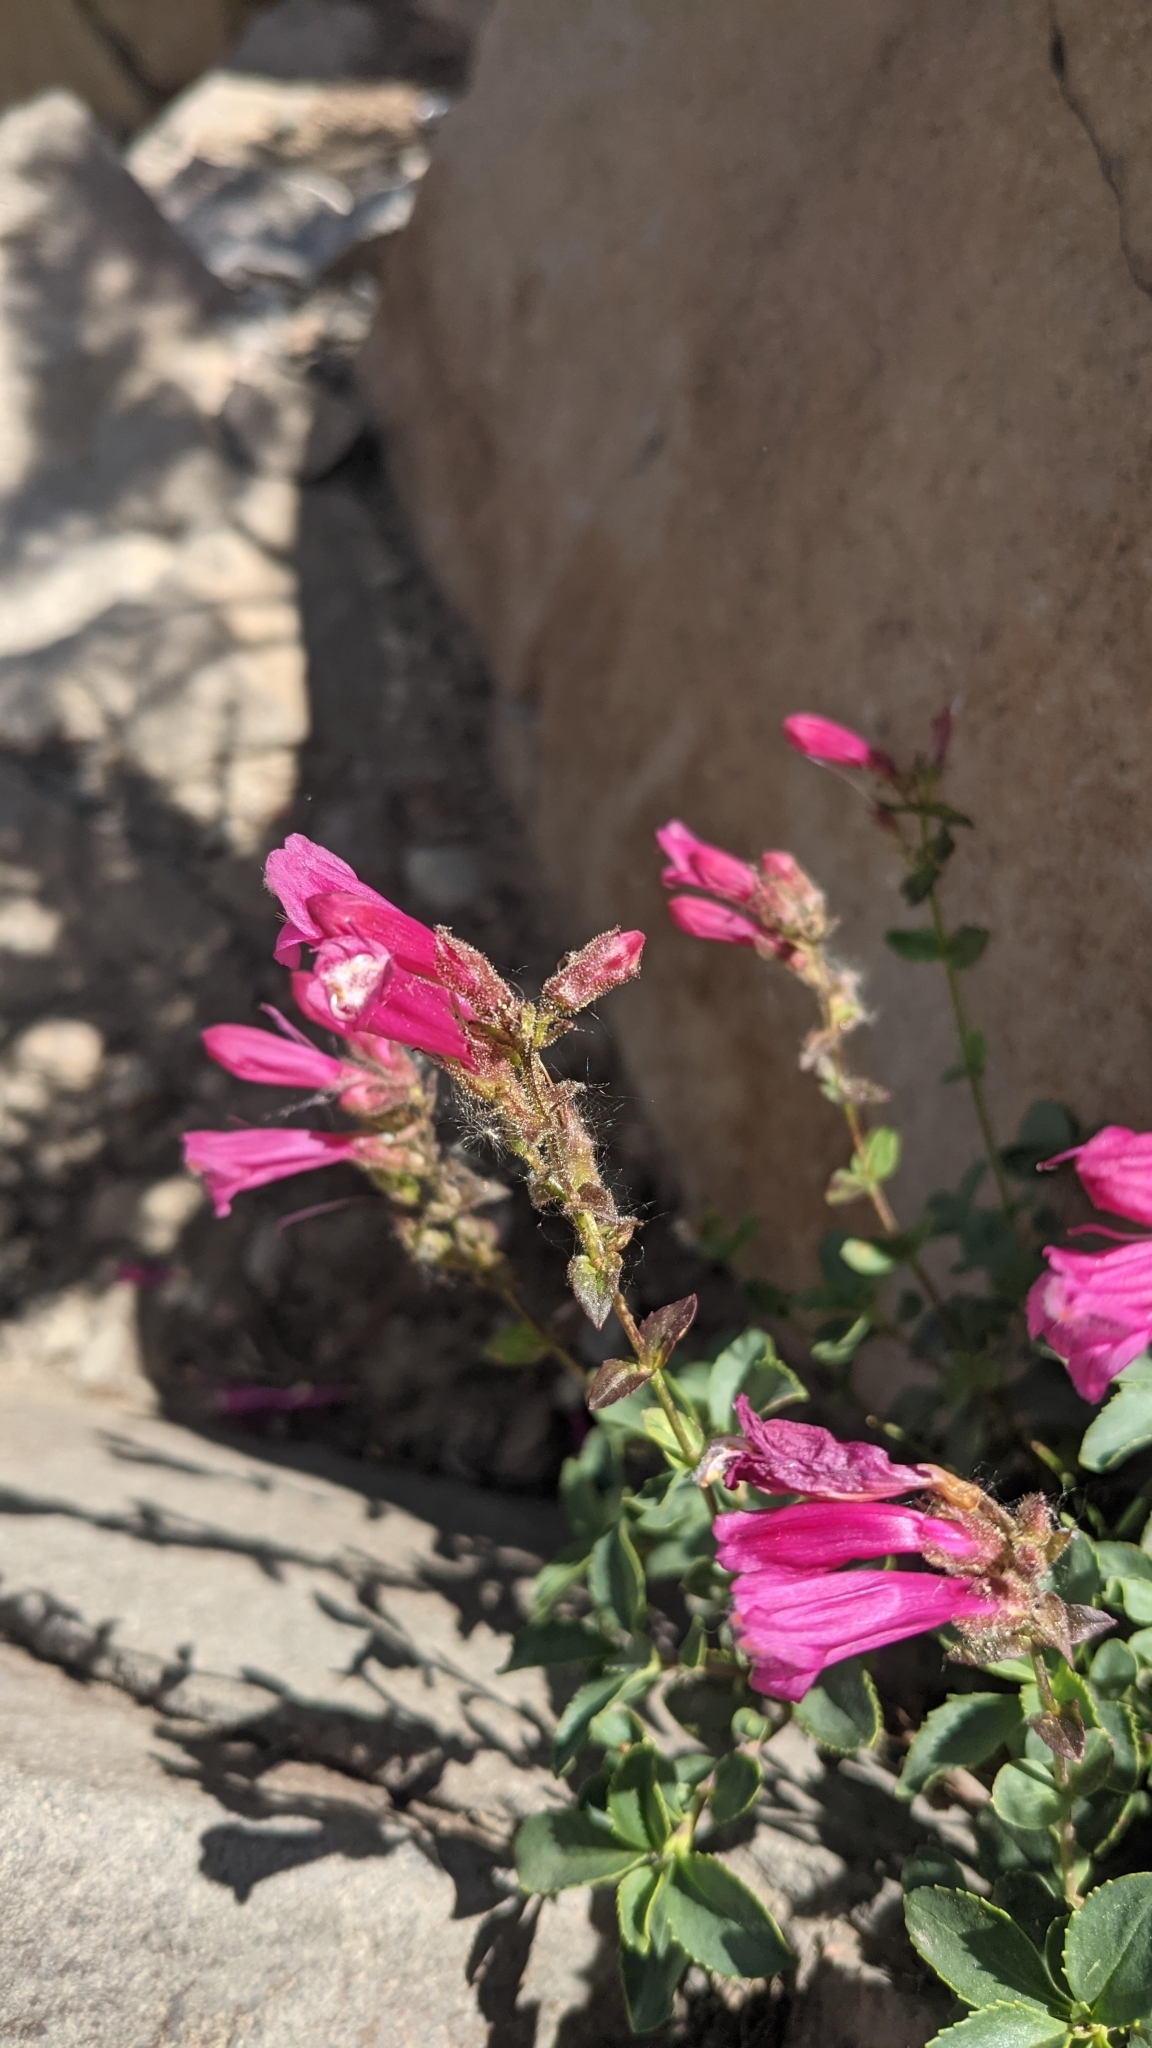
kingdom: Plantae
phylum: Tracheophyta
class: Magnoliopsida
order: Lamiales
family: Plantaginaceae
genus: Penstemon
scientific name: Penstemon newberryi
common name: Mountain-pride
